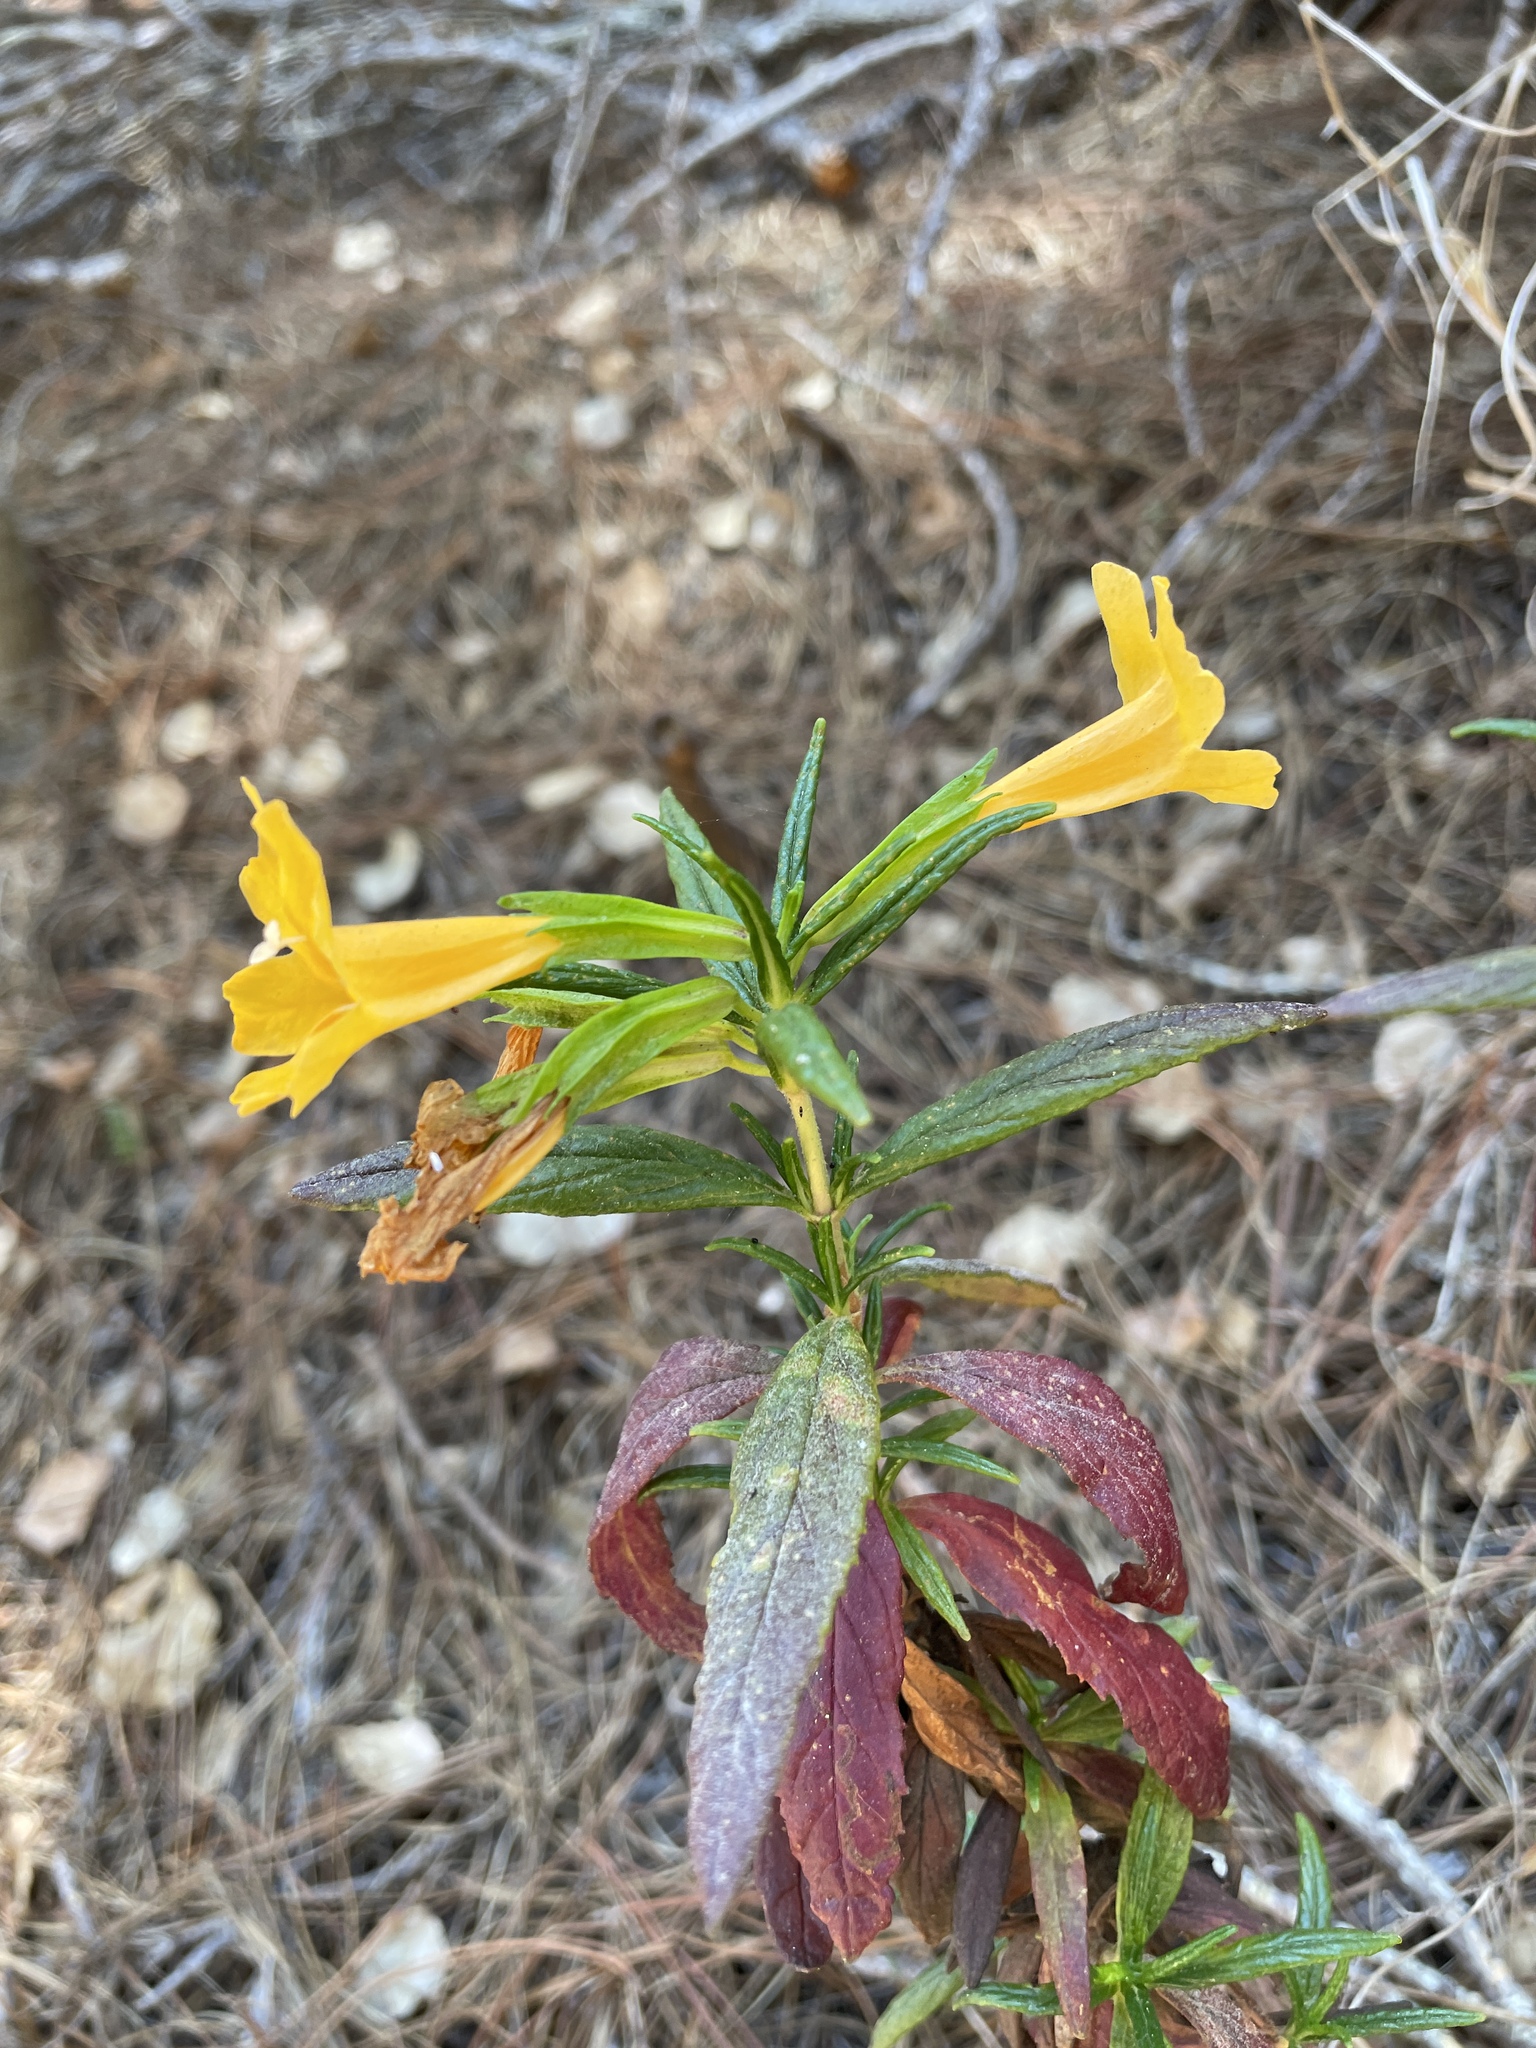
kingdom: Plantae
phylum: Tracheophyta
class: Magnoliopsida
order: Lamiales
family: Phrymaceae
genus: Diplacus
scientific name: Diplacus aurantiacus
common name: Bush monkey-flower
